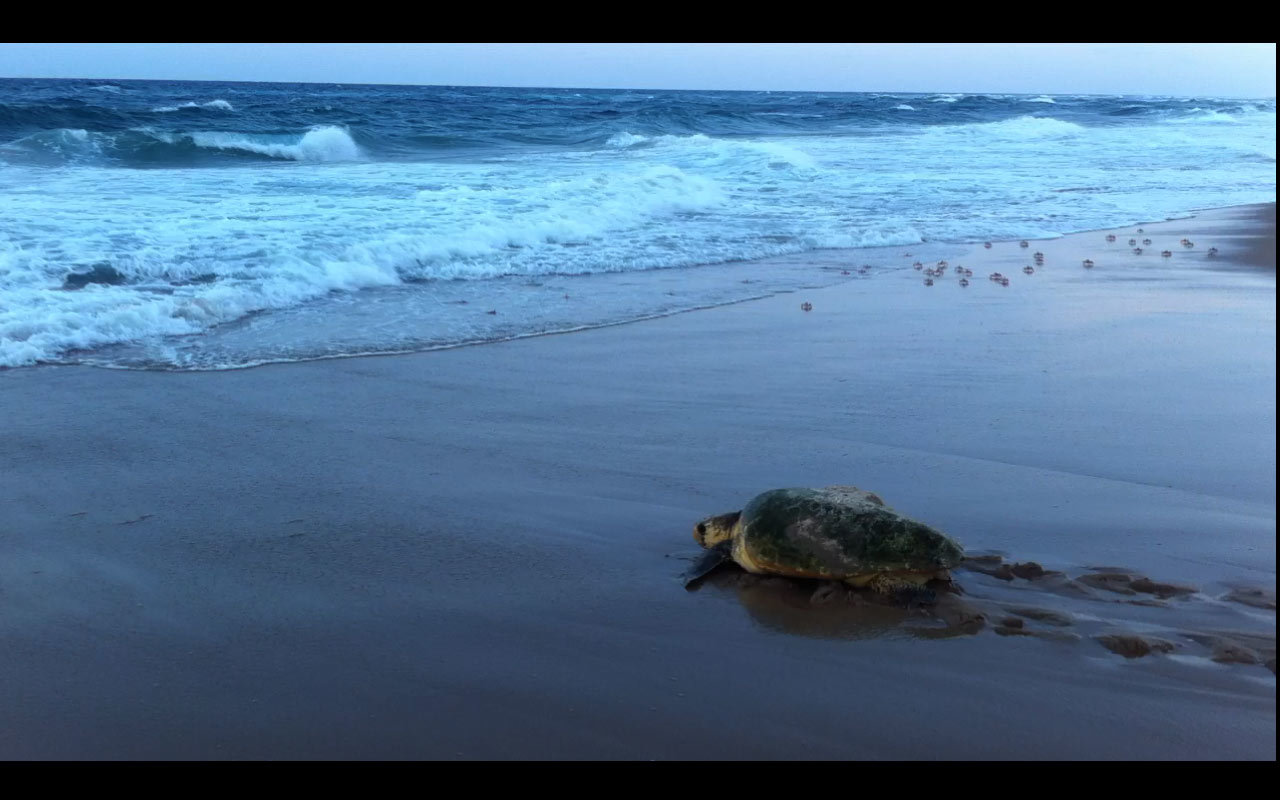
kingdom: Animalia
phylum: Chordata
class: Testudines
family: Cheloniidae
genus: Caretta
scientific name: Caretta caretta
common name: Loggerhead sea turtle
